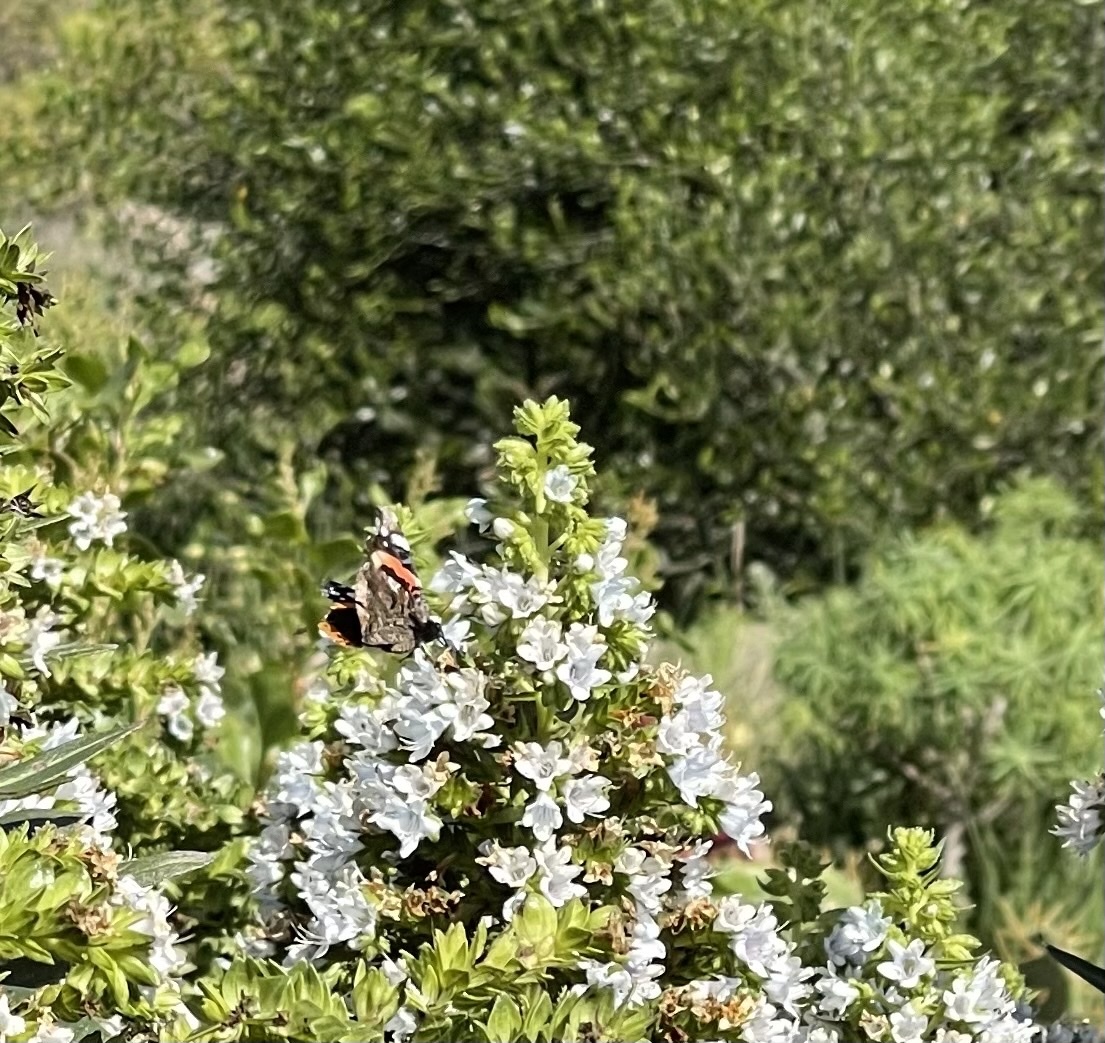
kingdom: Animalia
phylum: Arthropoda
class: Insecta
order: Lepidoptera
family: Nymphalidae
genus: Vanessa
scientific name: Vanessa atalanta
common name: Red admiral
